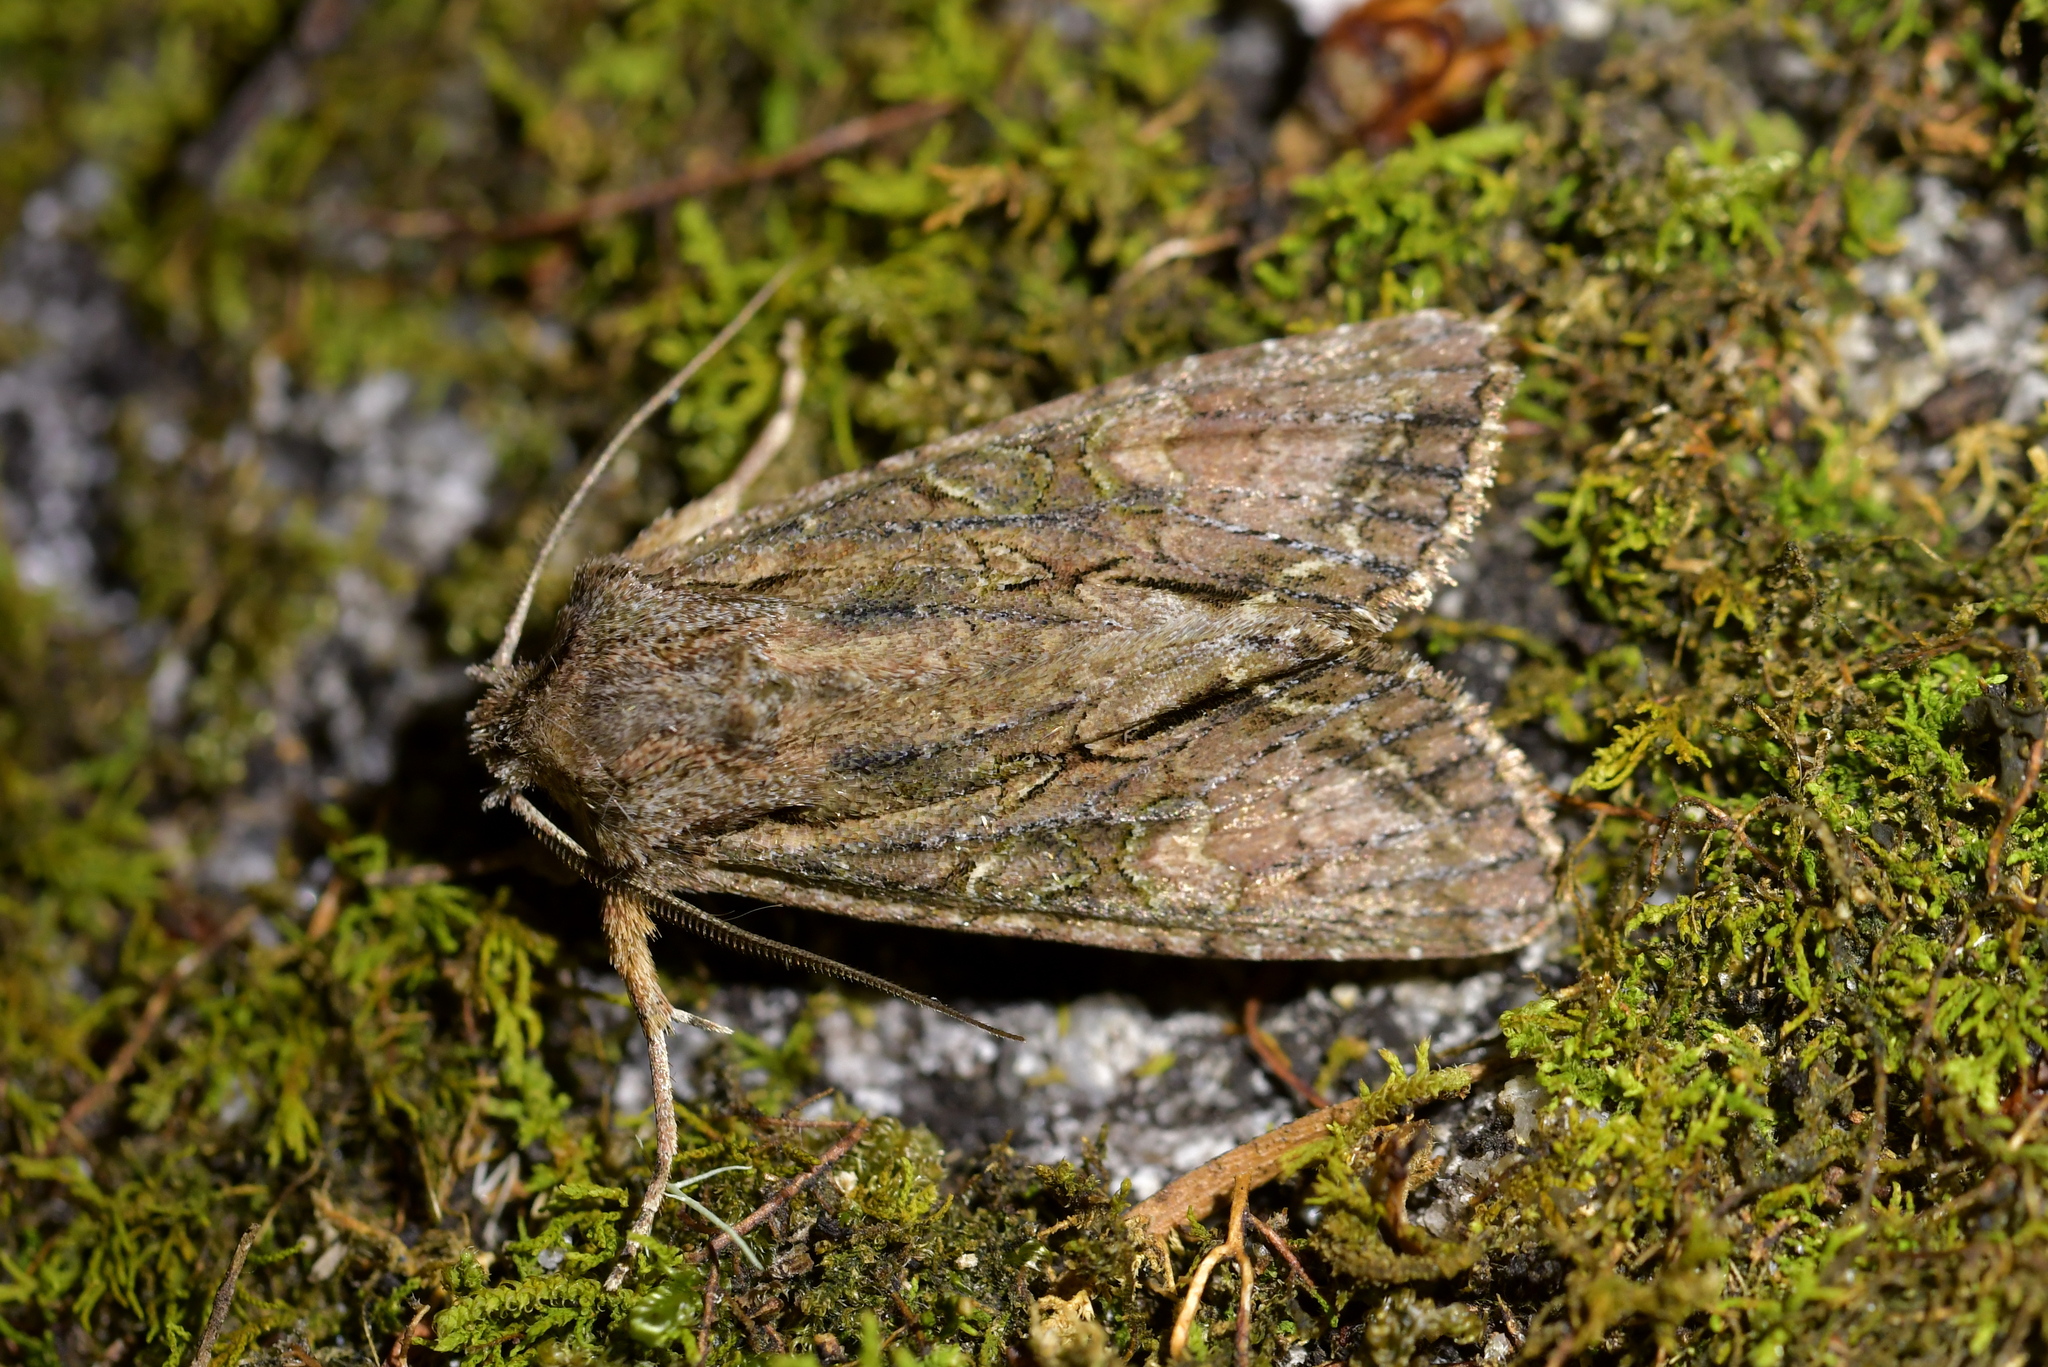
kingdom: Animalia
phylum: Arthropoda
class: Insecta
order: Lepidoptera
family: Noctuidae
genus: Ichneutica
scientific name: Ichneutica mutans
